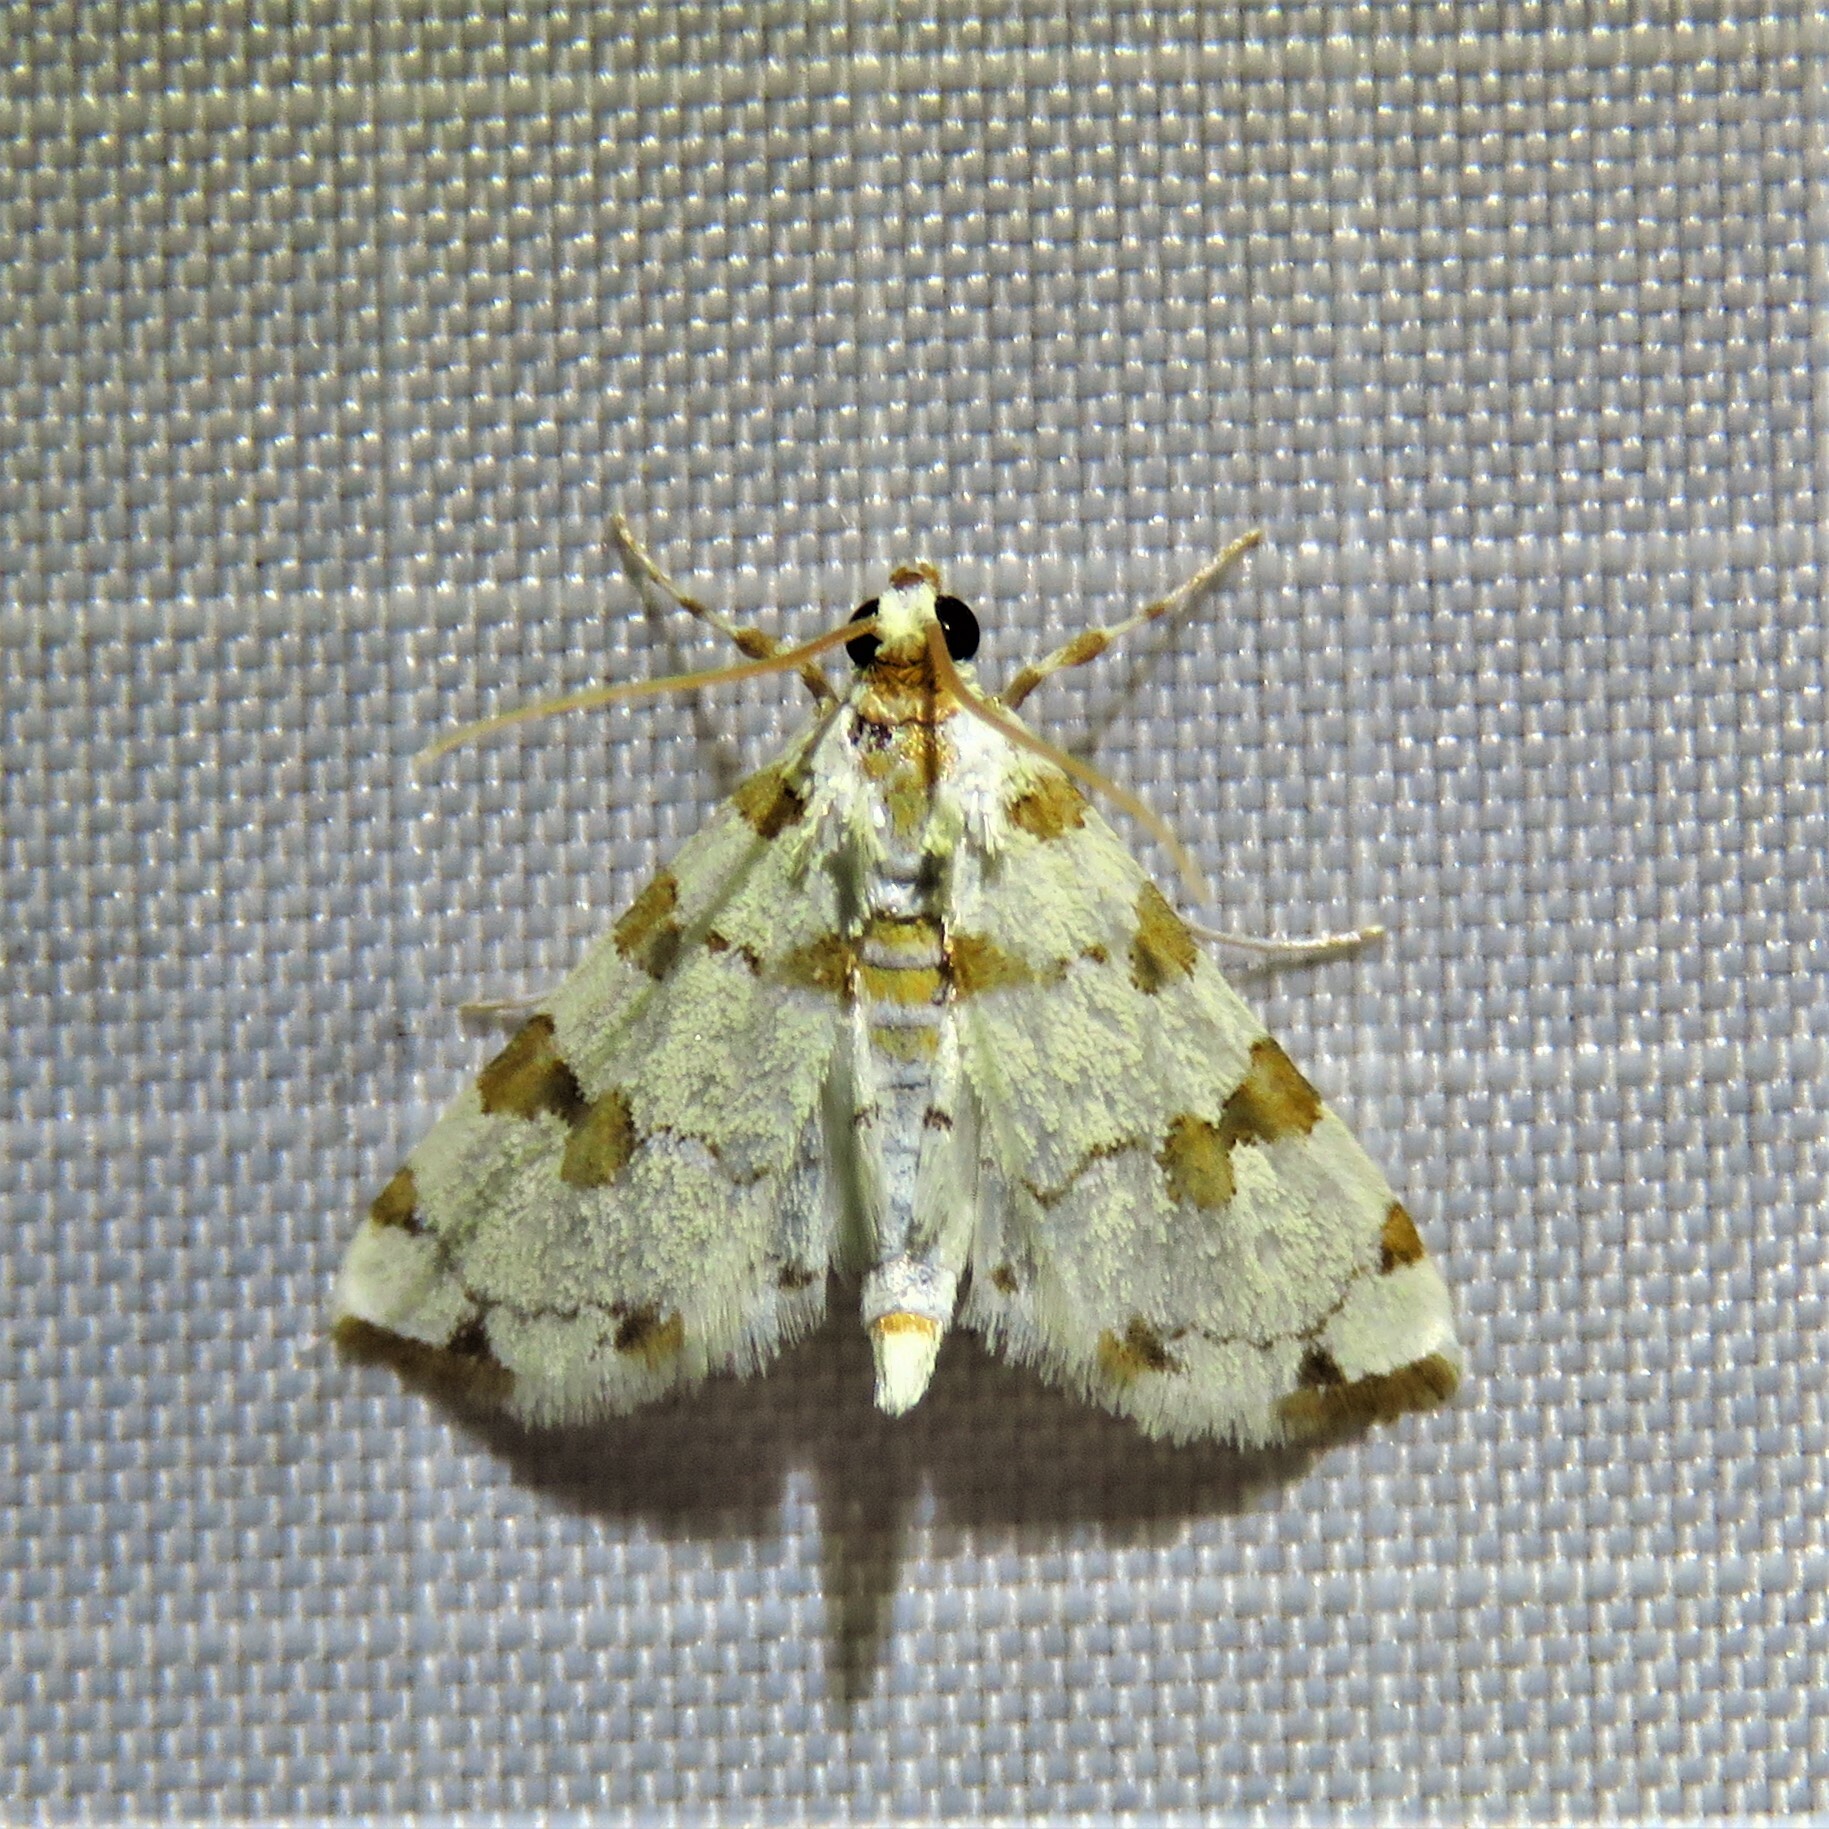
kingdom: Animalia
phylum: Arthropoda
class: Insecta
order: Lepidoptera
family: Crambidae
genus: Conchylodes
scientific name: Conchylodes
